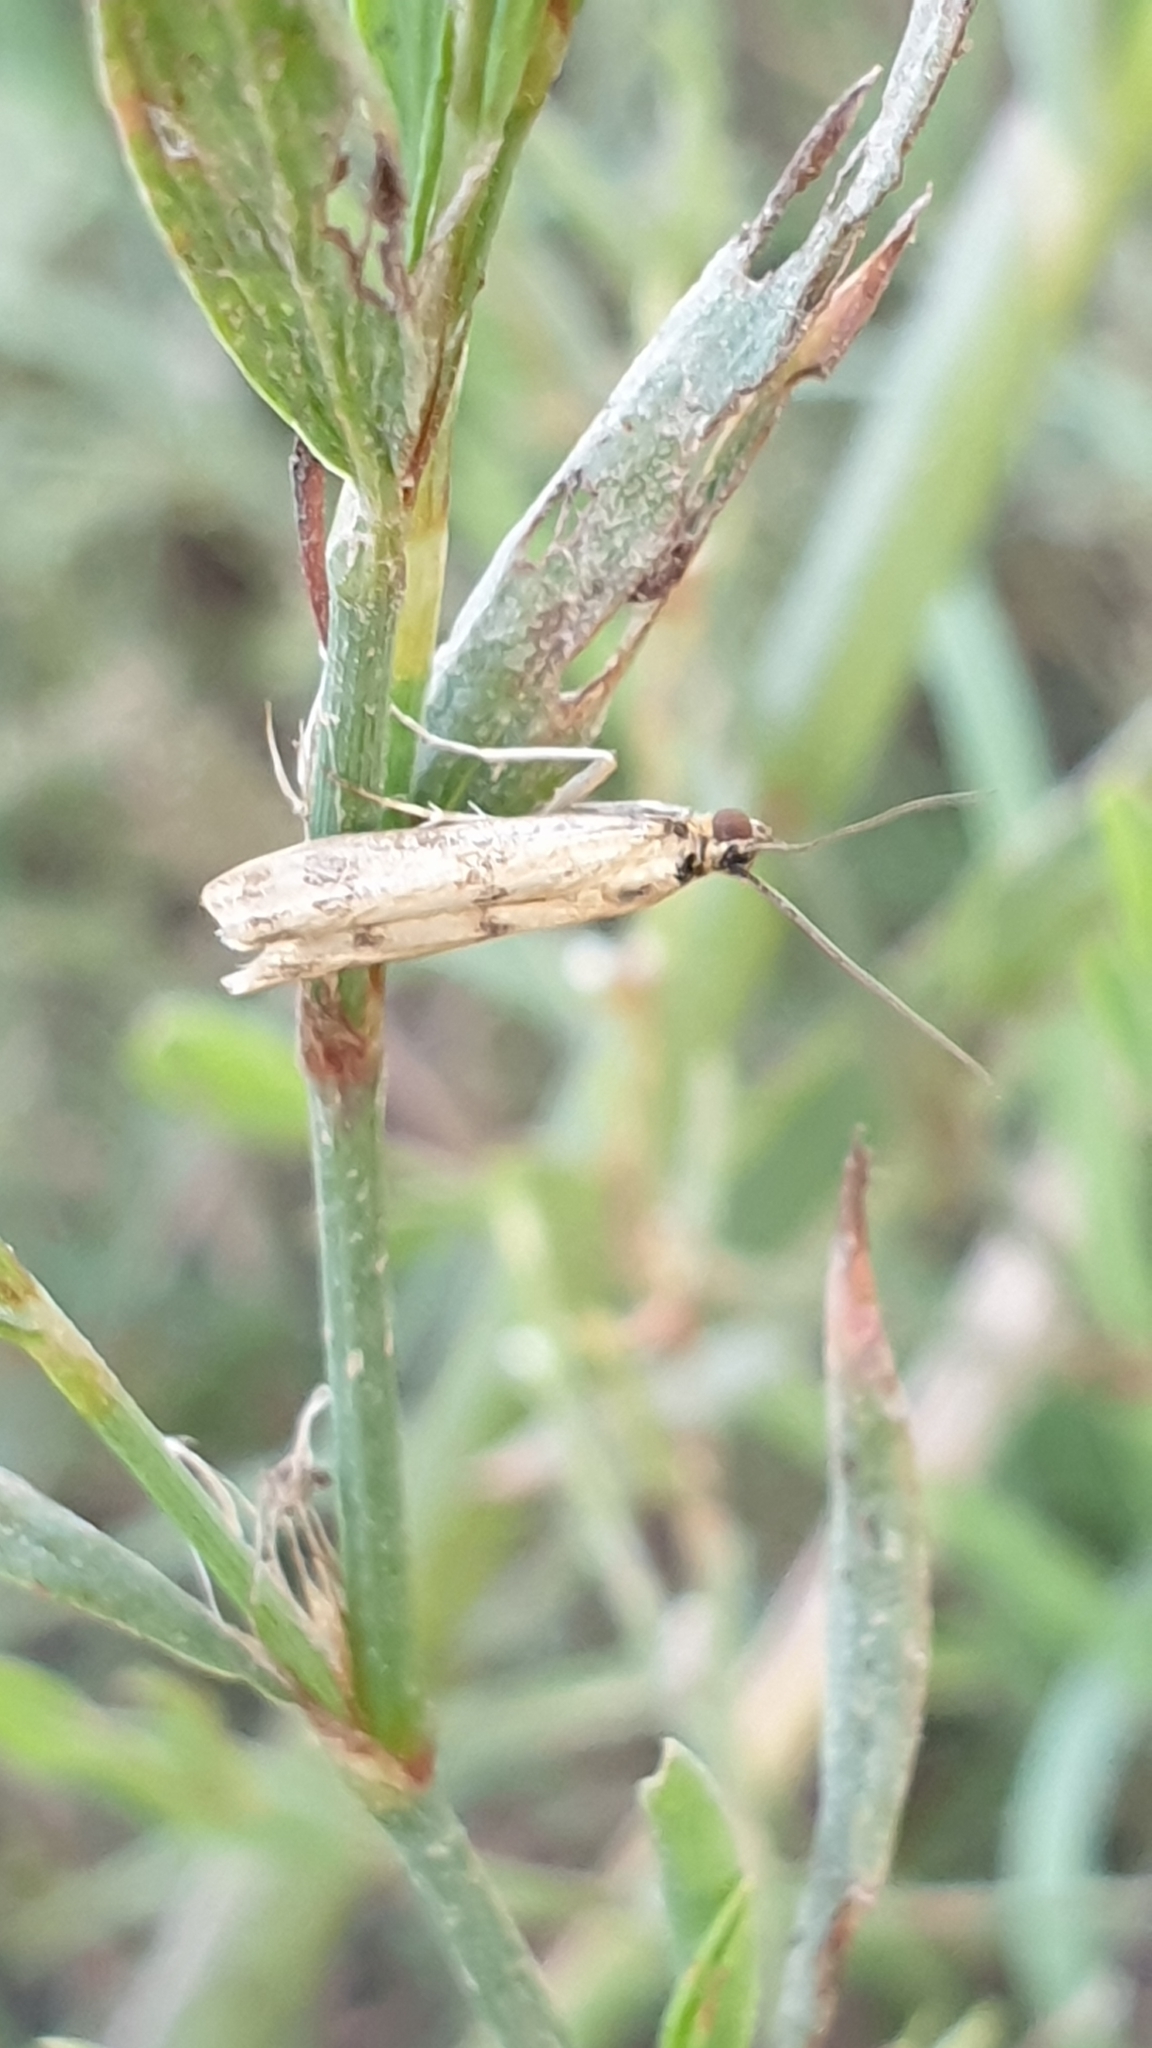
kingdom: Animalia
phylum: Arthropoda
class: Insecta
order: Lepidoptera
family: Pyralidae
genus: Homoeosoma
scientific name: Homoeosoma sinuella
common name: Twin-barred knot-horn
